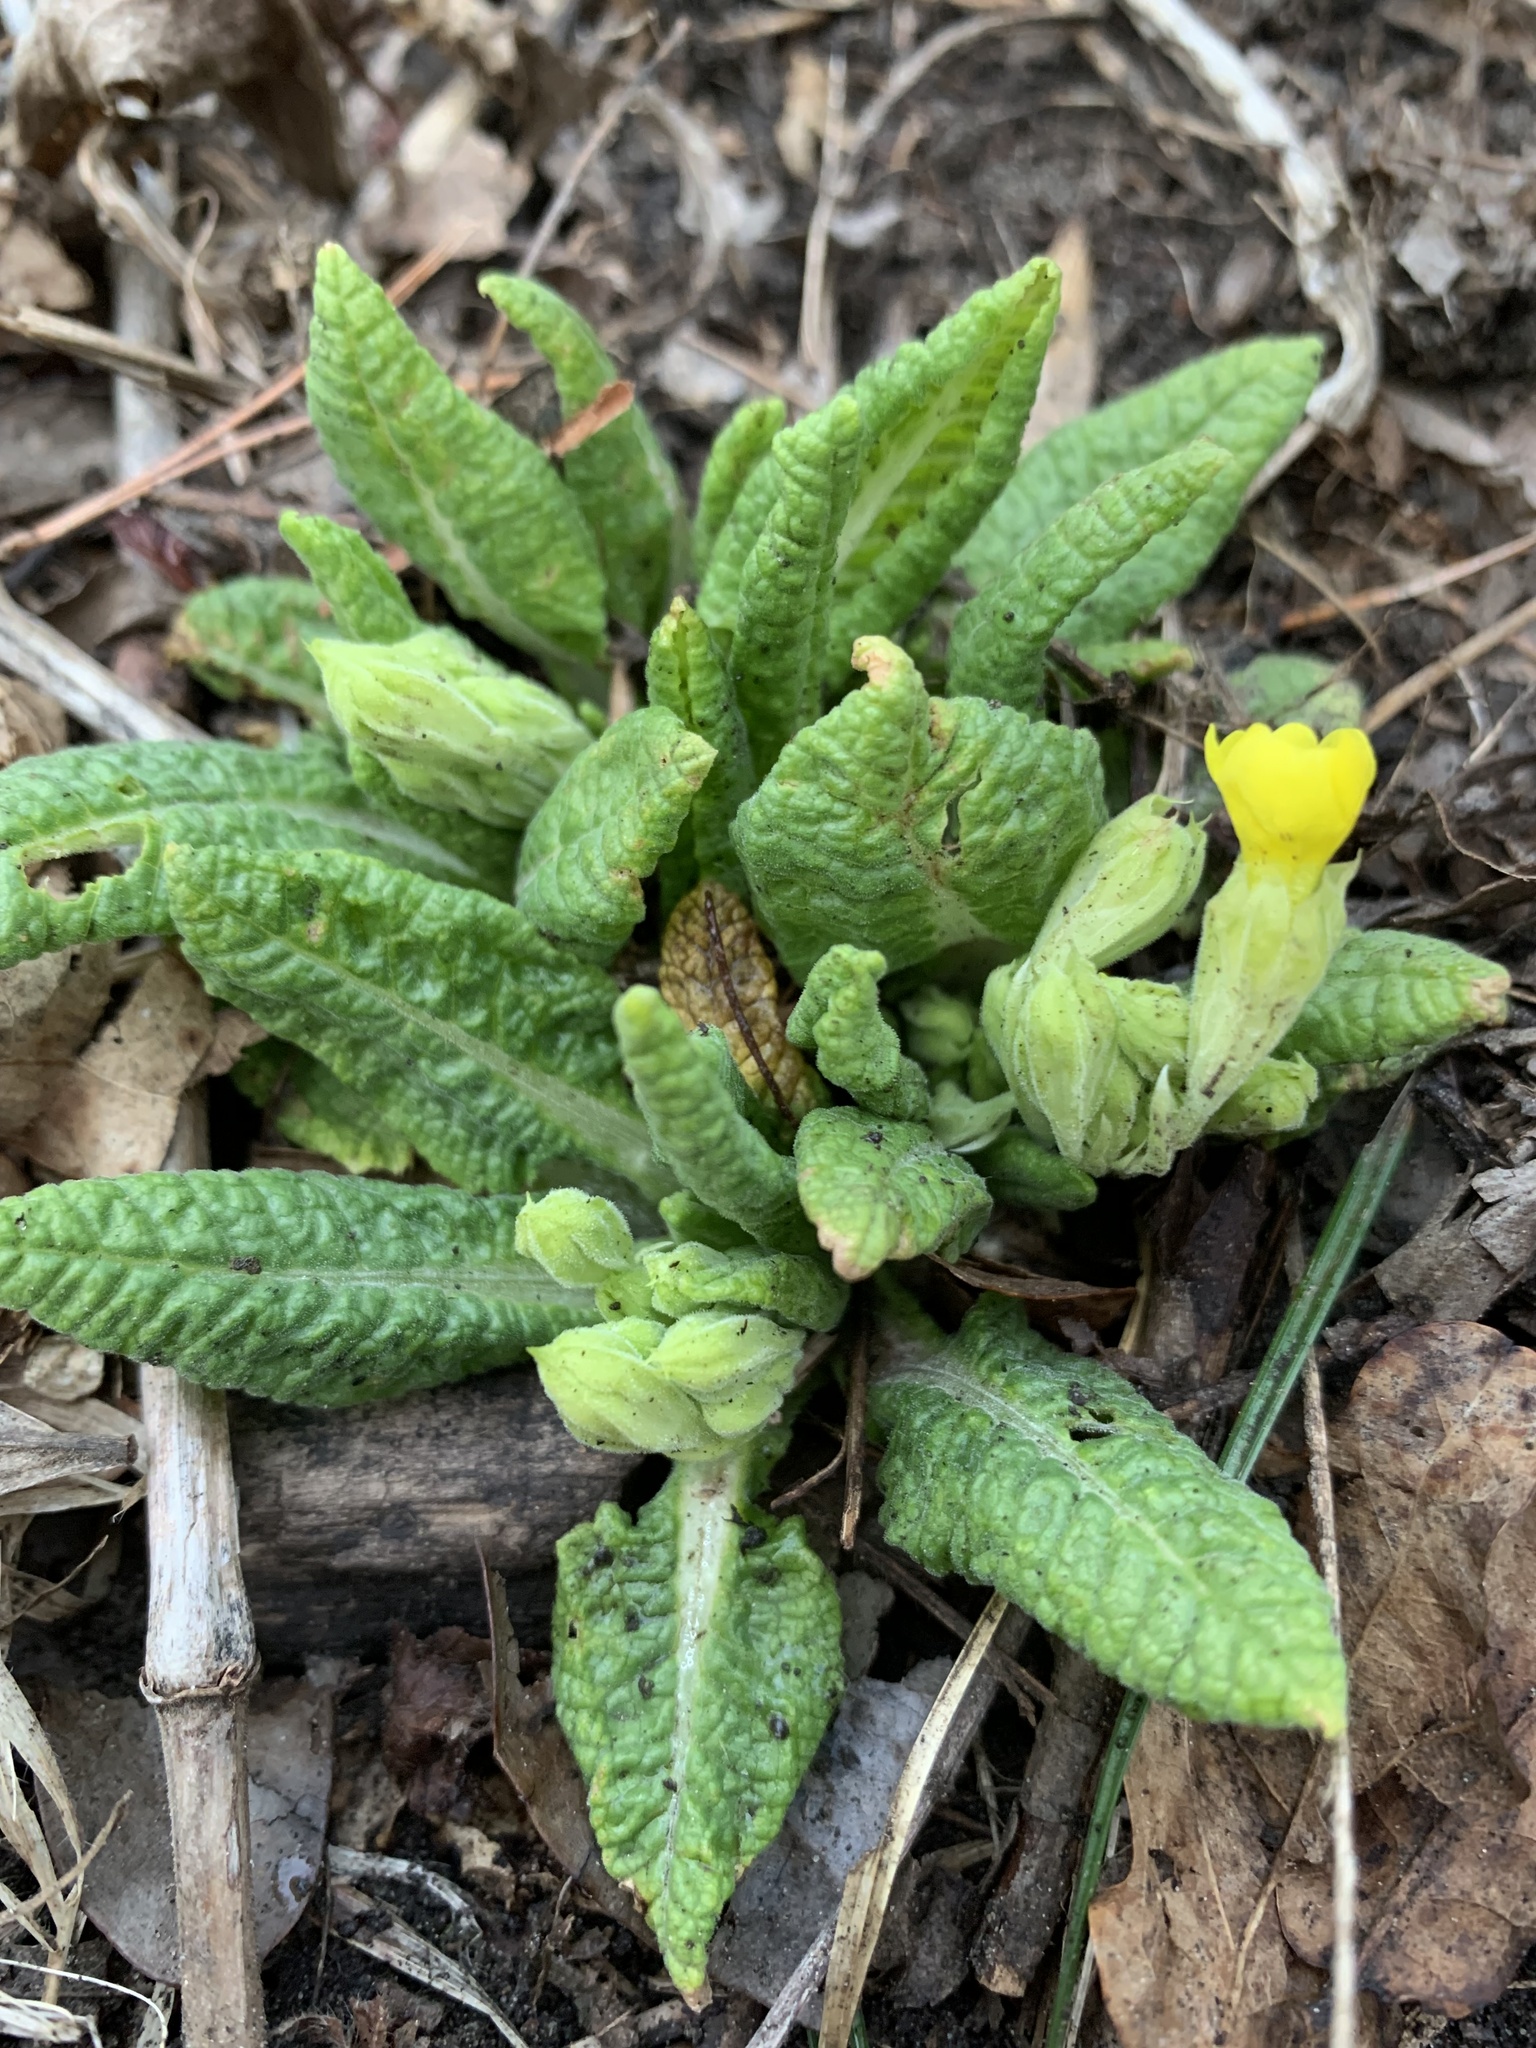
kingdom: Plantae
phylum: Tracheophyta
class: Magnoliopsida
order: Ericales
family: Primulaceae
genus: Primula
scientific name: Primula veris
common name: Cowslip
